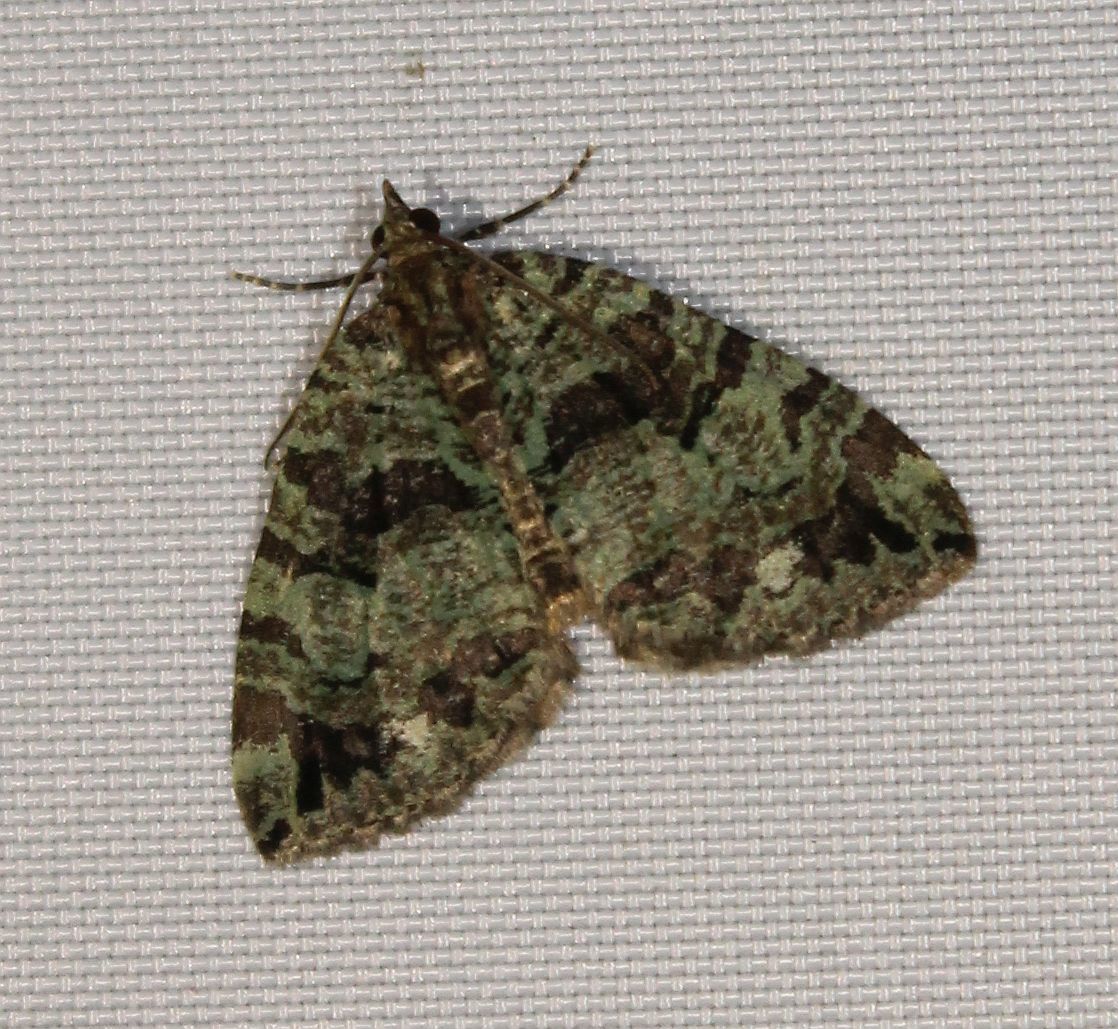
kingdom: Animalia
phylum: Arthropoda
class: Insecta
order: Lepidoptera
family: Geometridae
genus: Hydriomena
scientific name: Hydriomena furcata
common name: July highflyer
